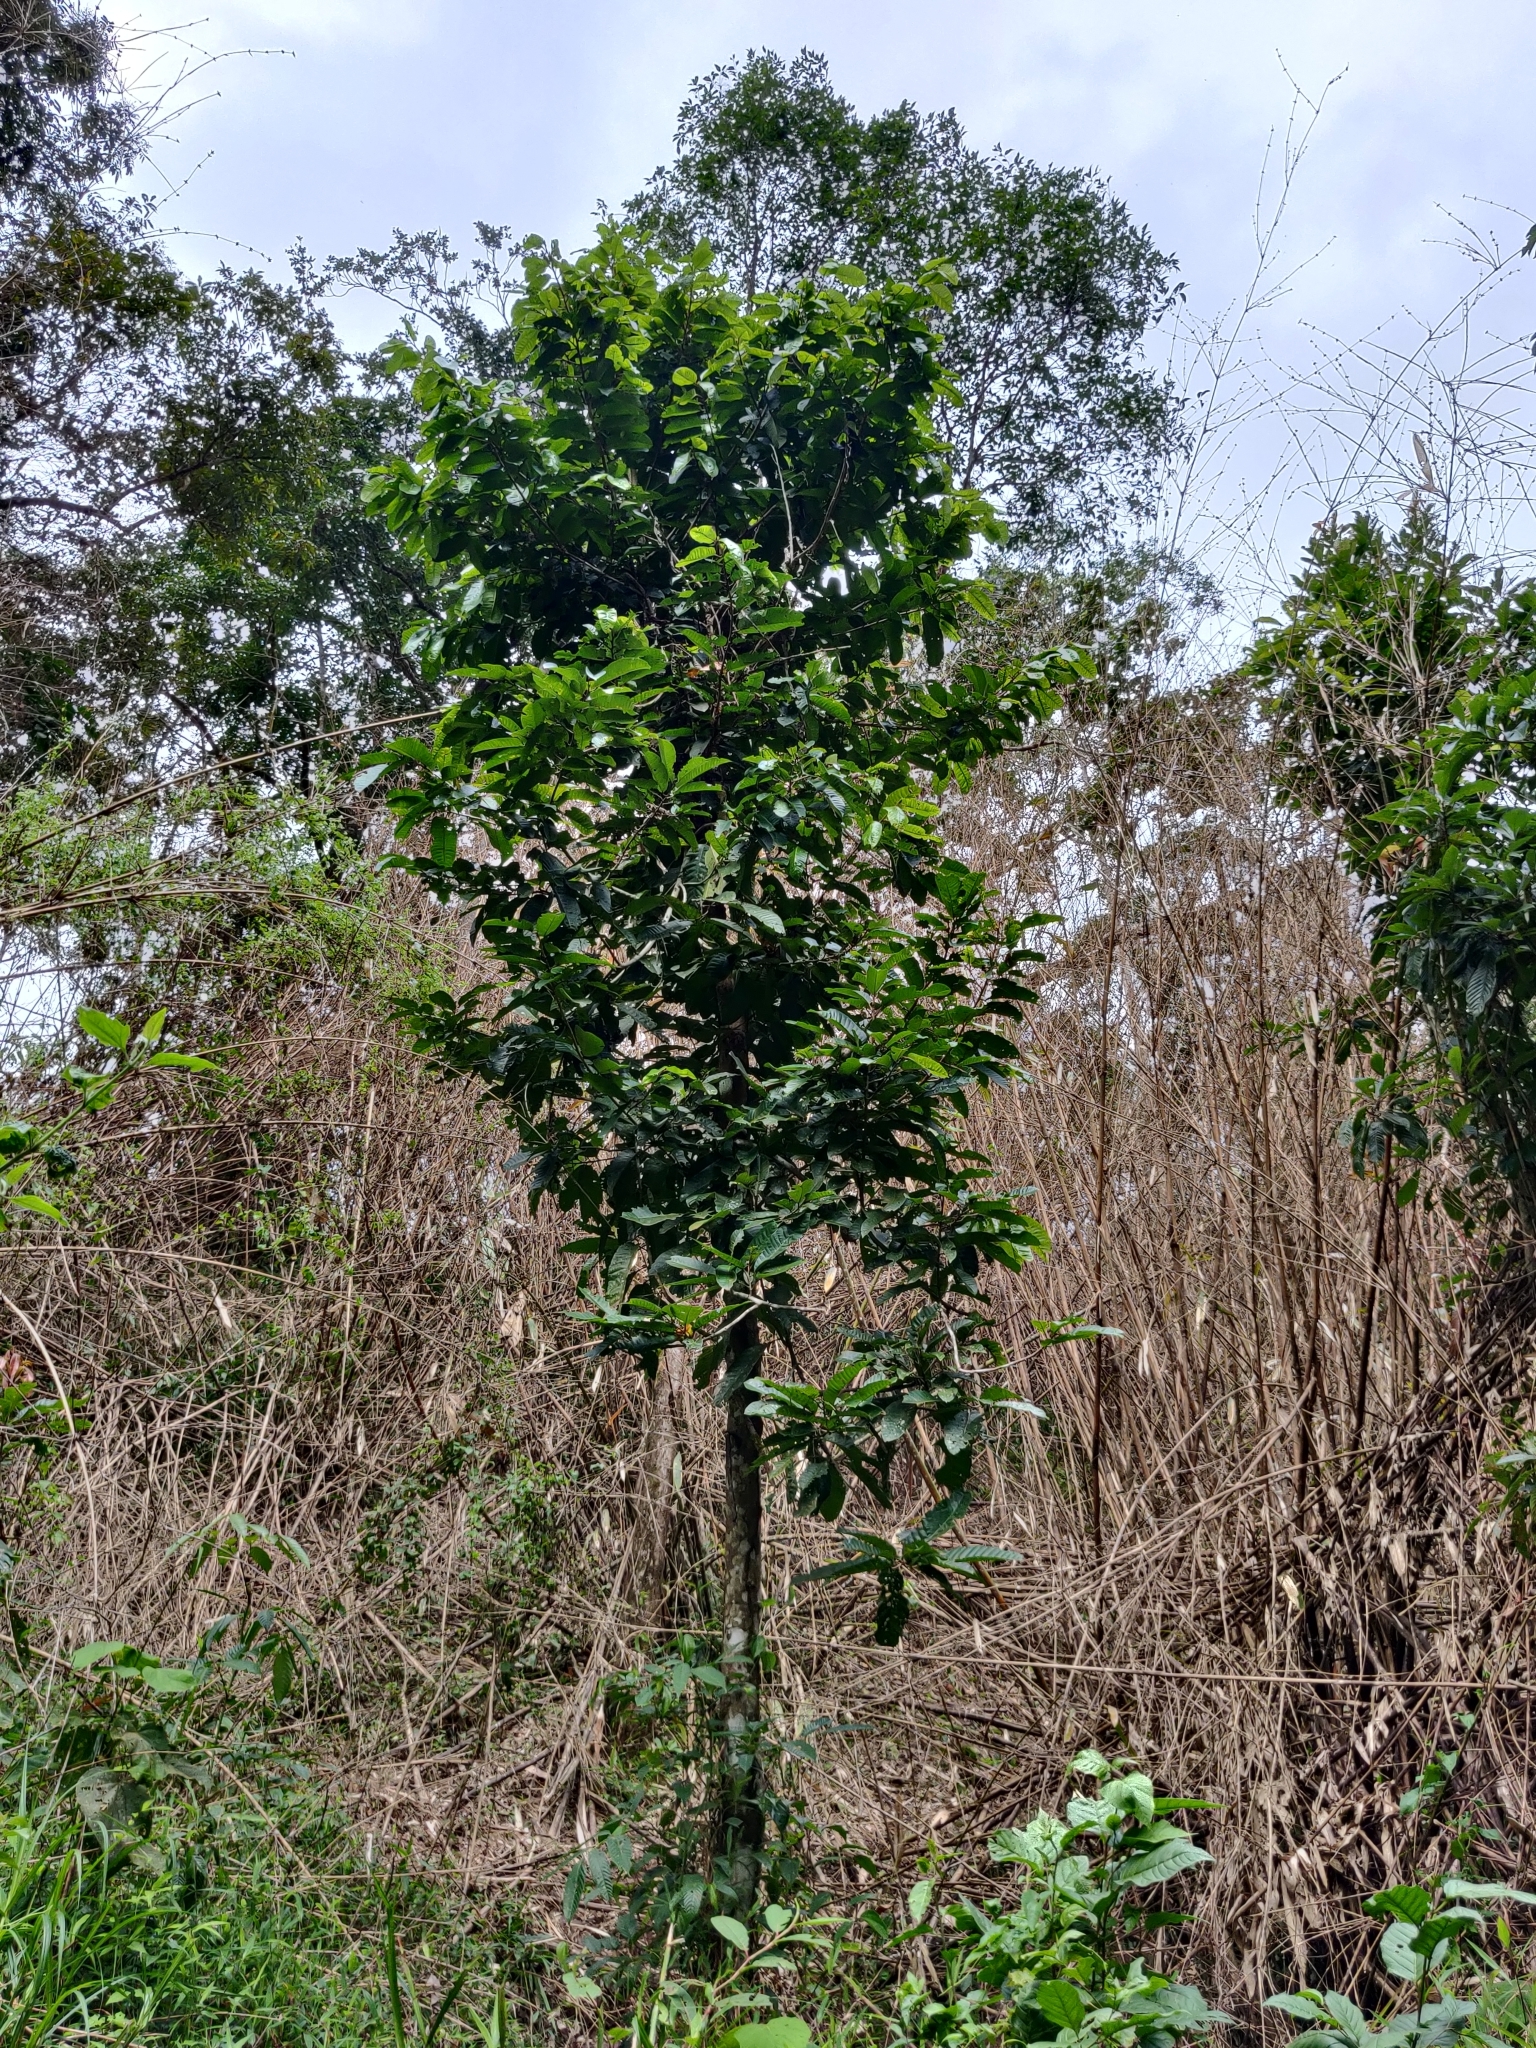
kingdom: Plantae
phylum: Tracheophyta
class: Magnoliopsida
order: Malvales
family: Dipterocarpaceae
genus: Vateria
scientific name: Vateria indica
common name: White dammar
